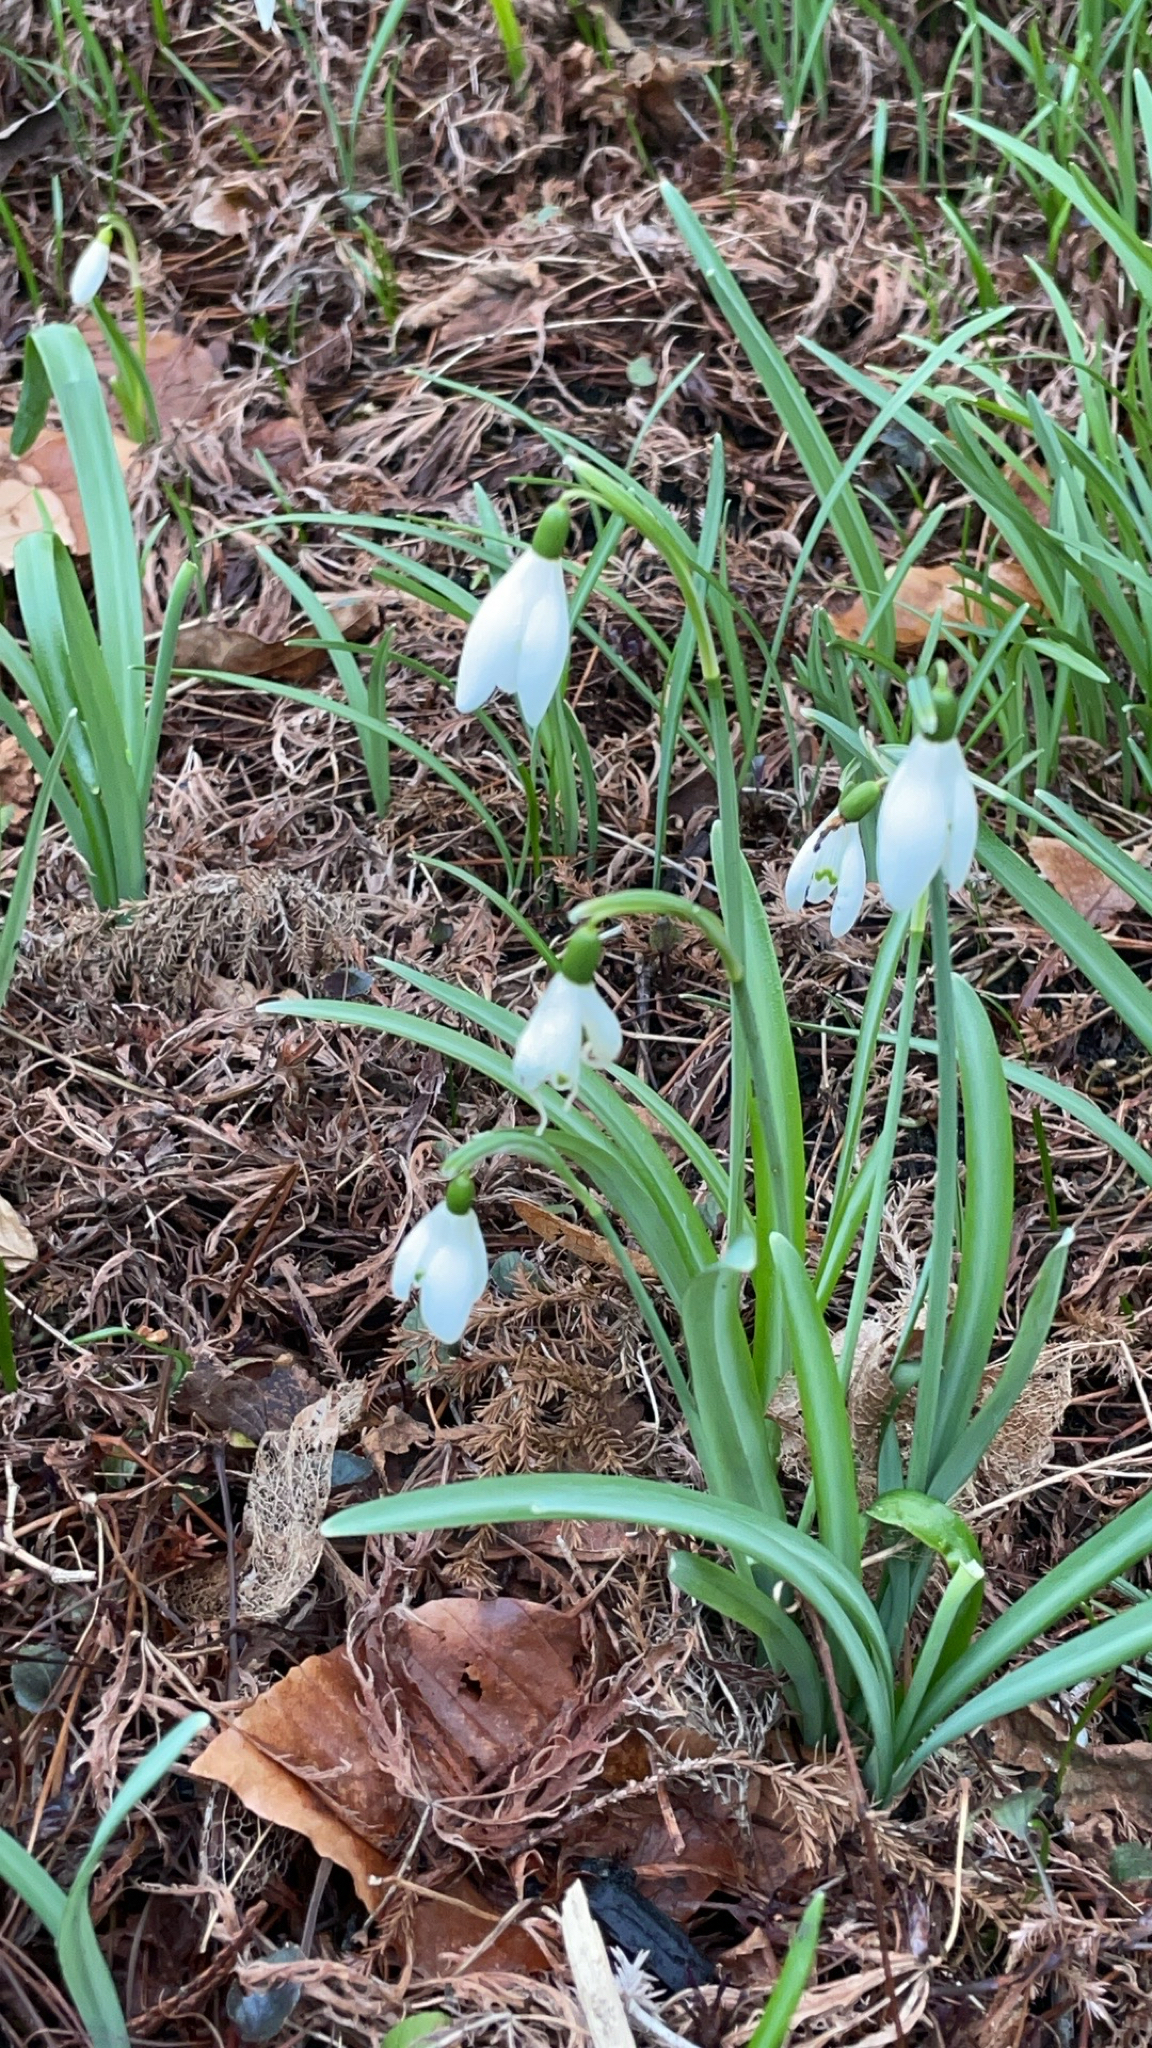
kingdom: Plantae
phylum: Tracheophyta
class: Liliopsida
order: Asparagales
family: Amaryllidaceae
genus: Galanthus
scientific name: Galanthus nivalis
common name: Snowdrop
